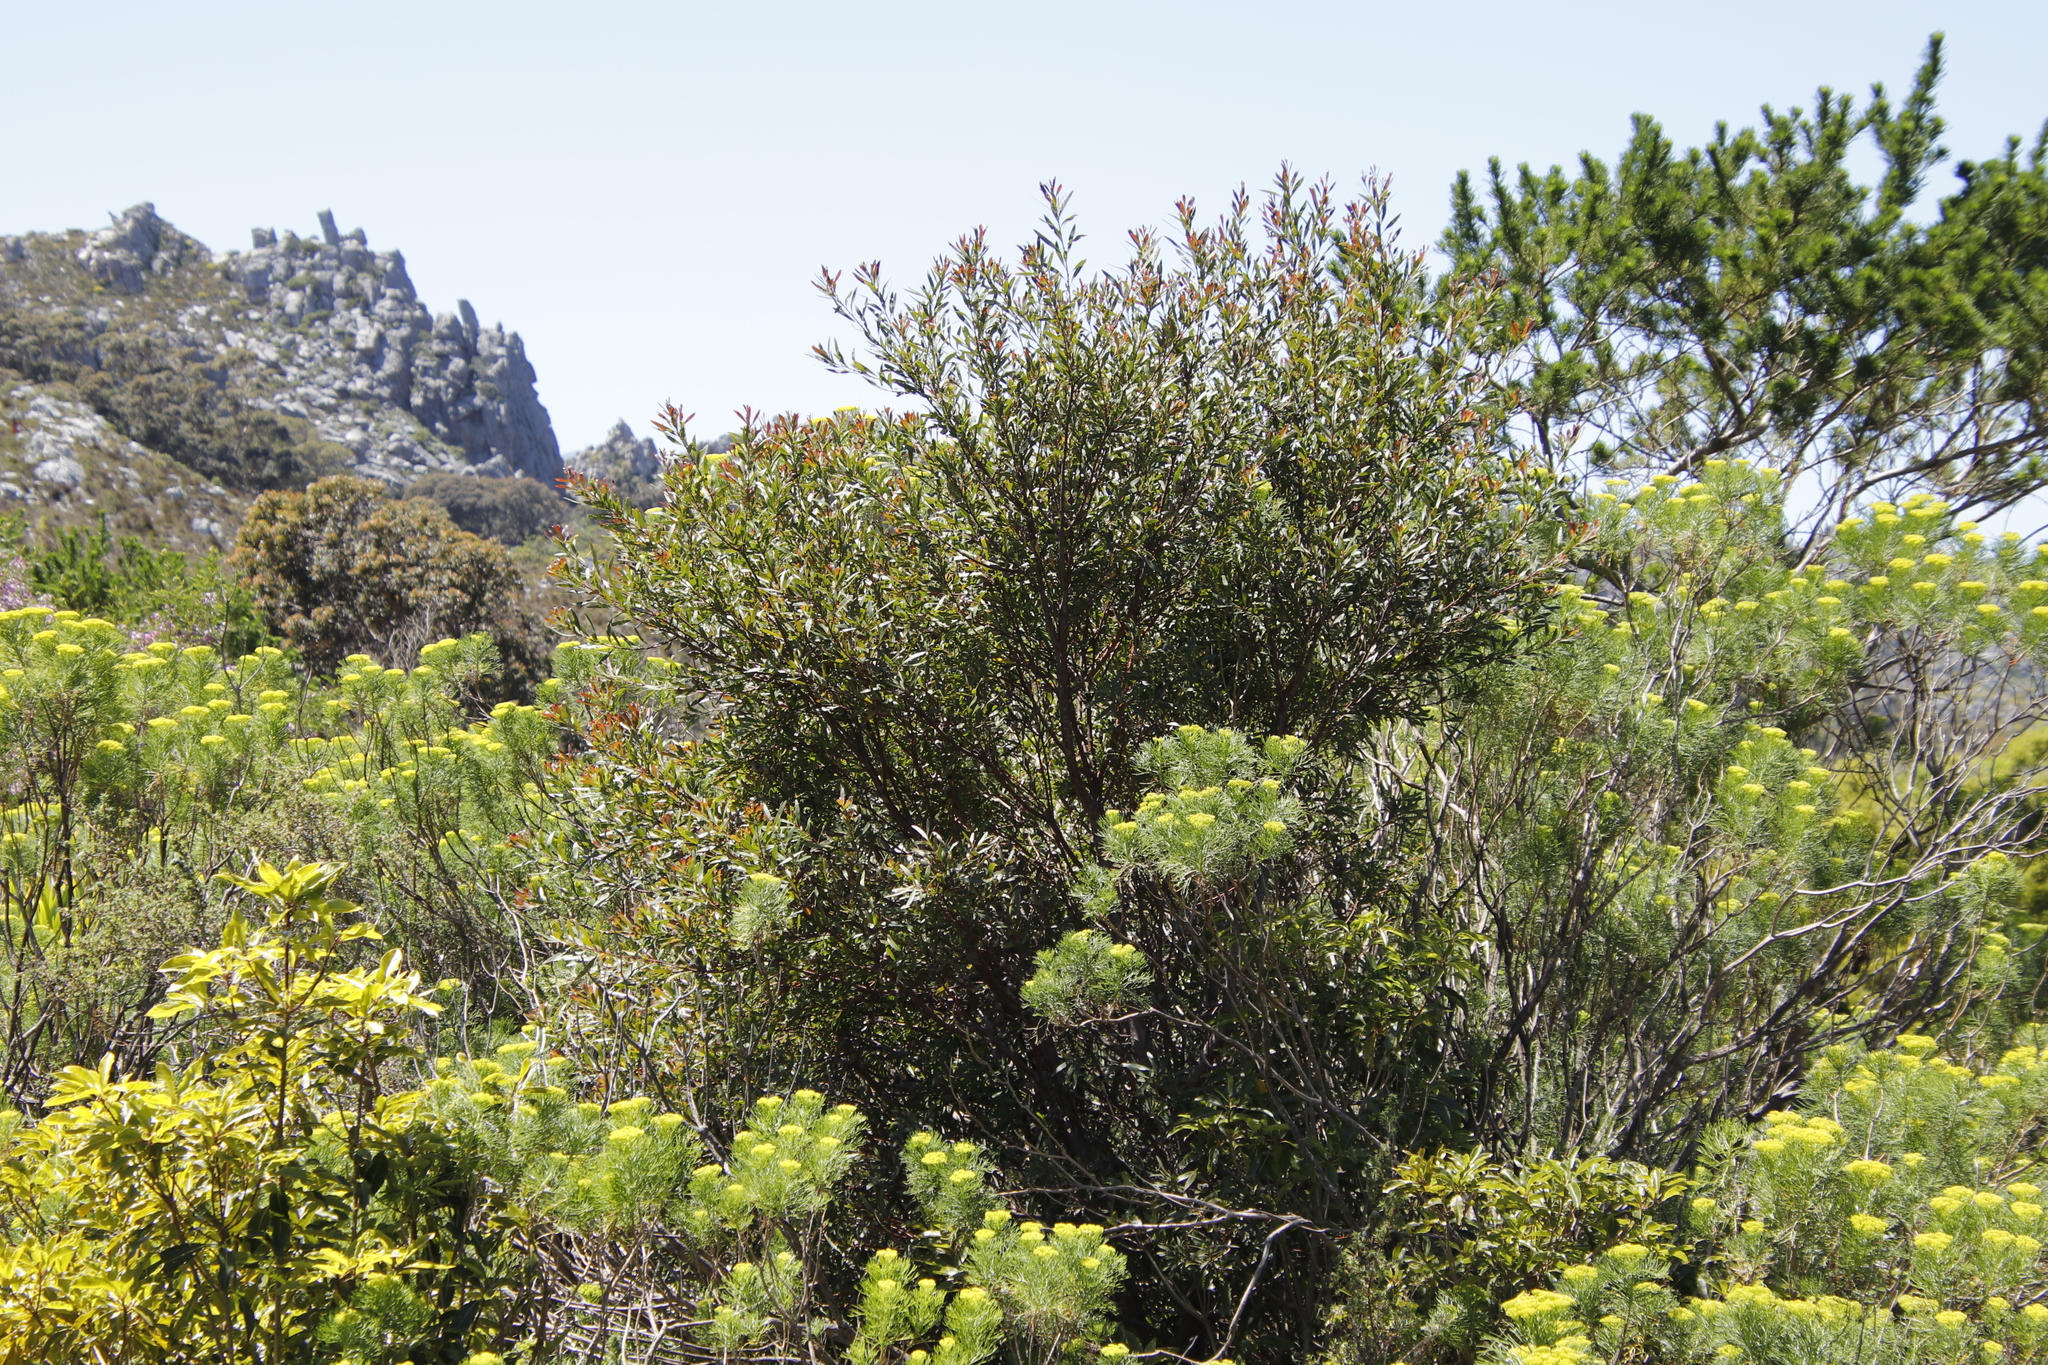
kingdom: Plantae
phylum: Tracheophyta
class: Magnoliopsida
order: Proteales
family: Proteaceae
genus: Hakea
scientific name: Hakea salicifolia
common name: Willow hakea
